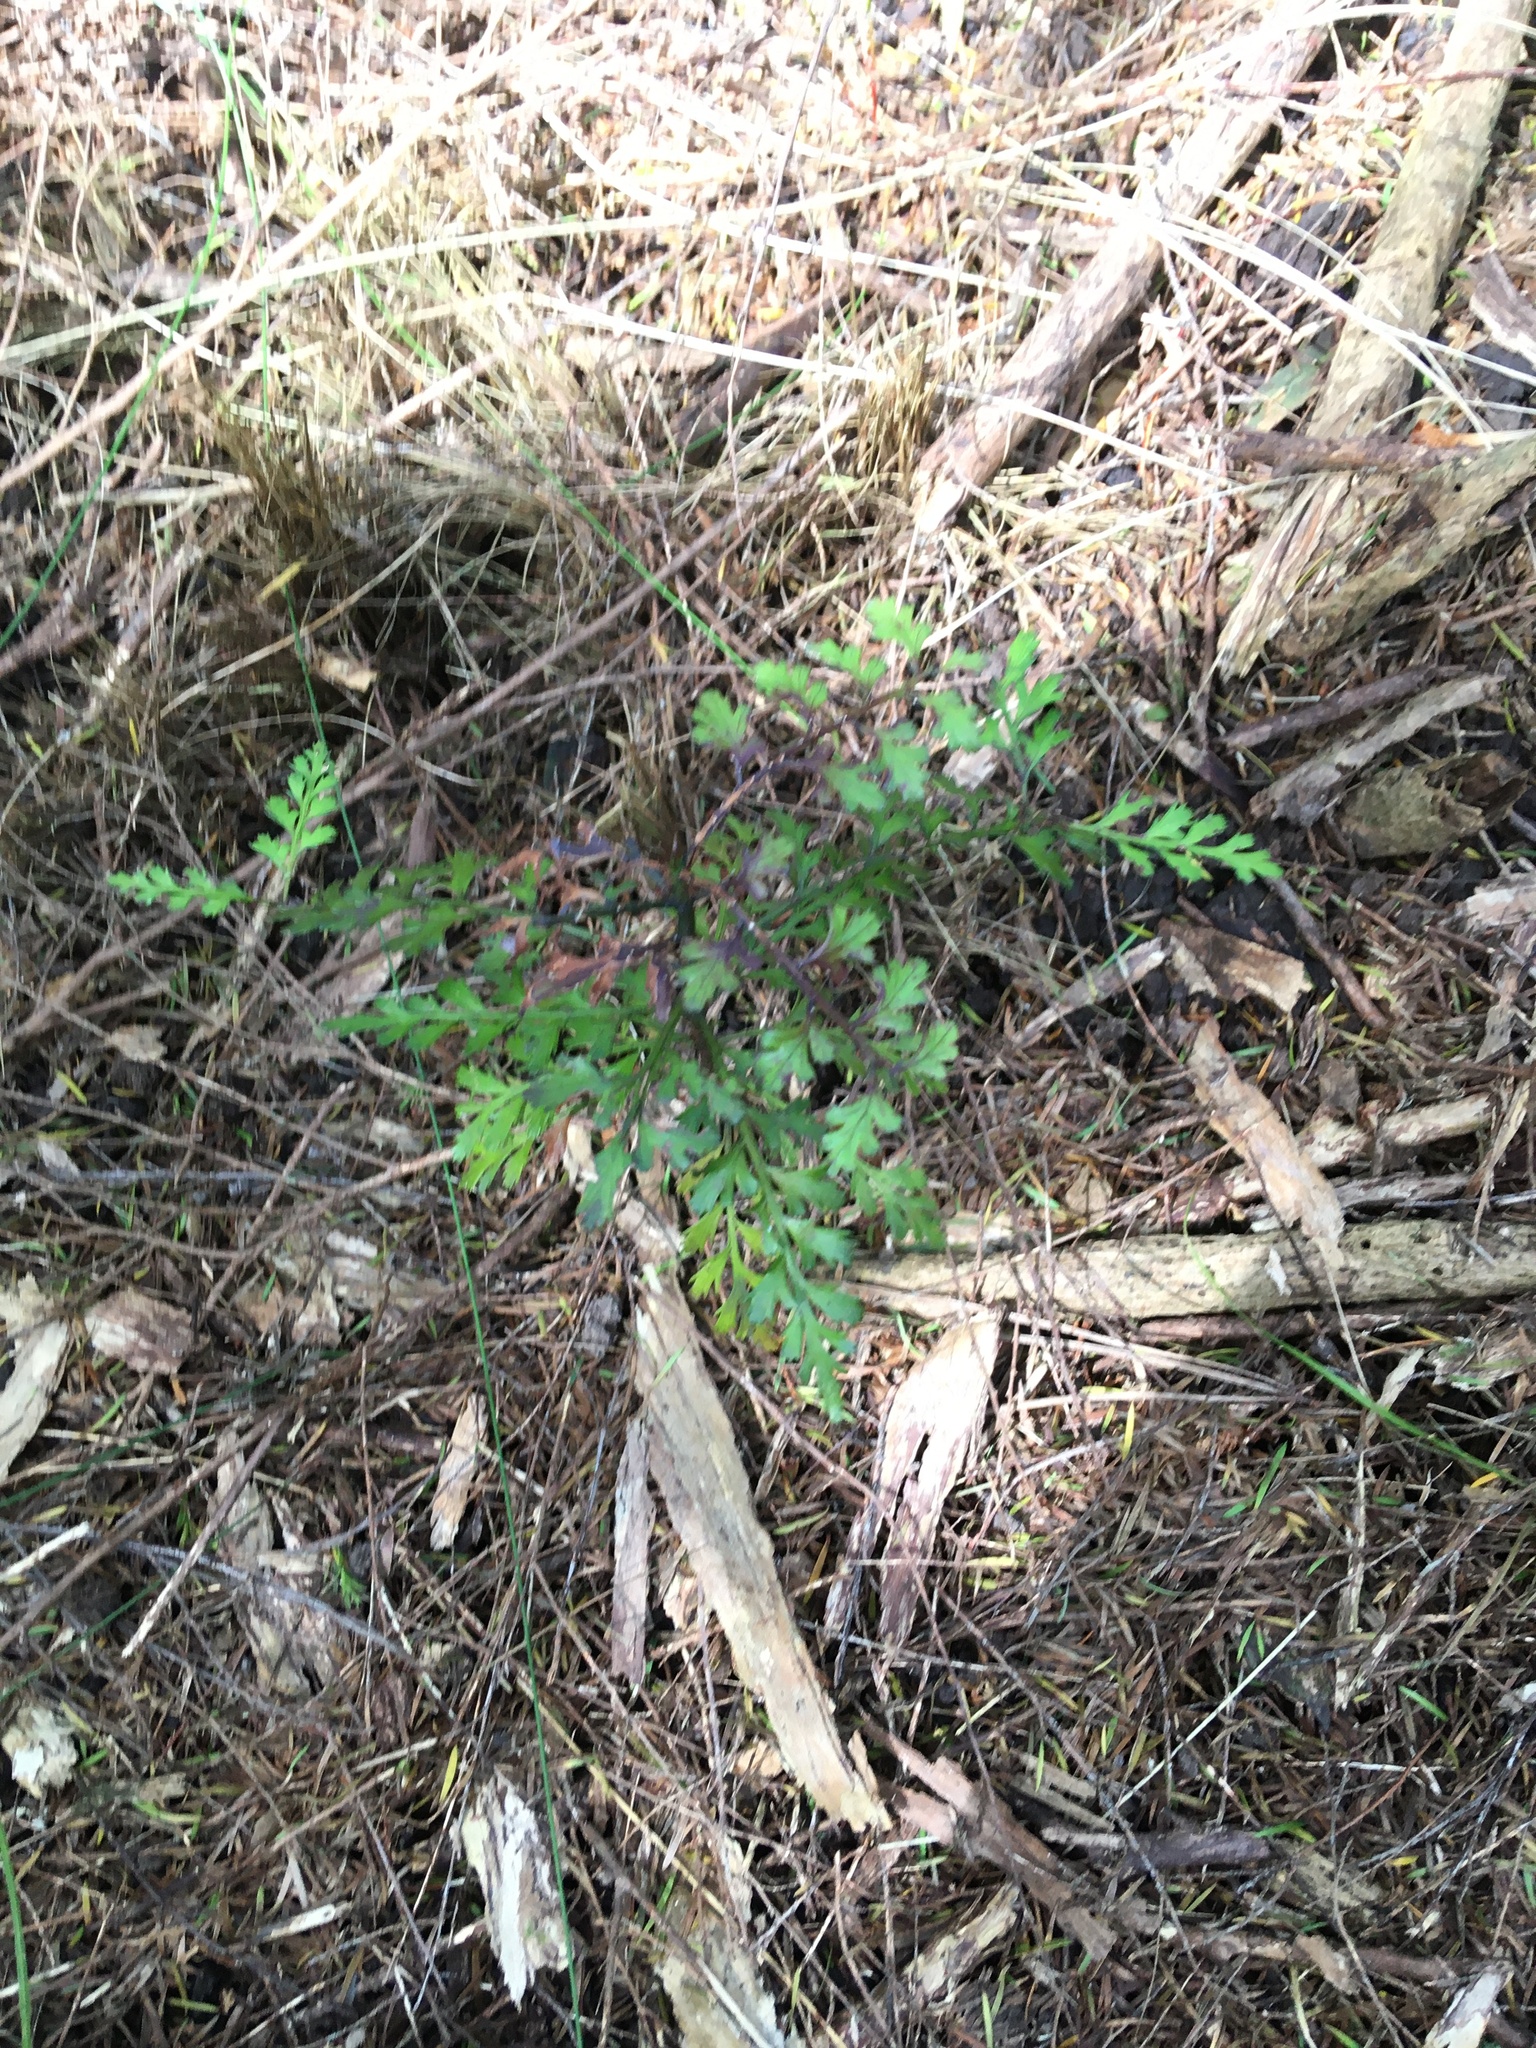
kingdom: Plantae
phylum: Tracheophyta
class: Pinopsida
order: Pinales
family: Phyllocladaceae
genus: Phyllocladus
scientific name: Phyllocladus trichomanoides
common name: Celery pine
